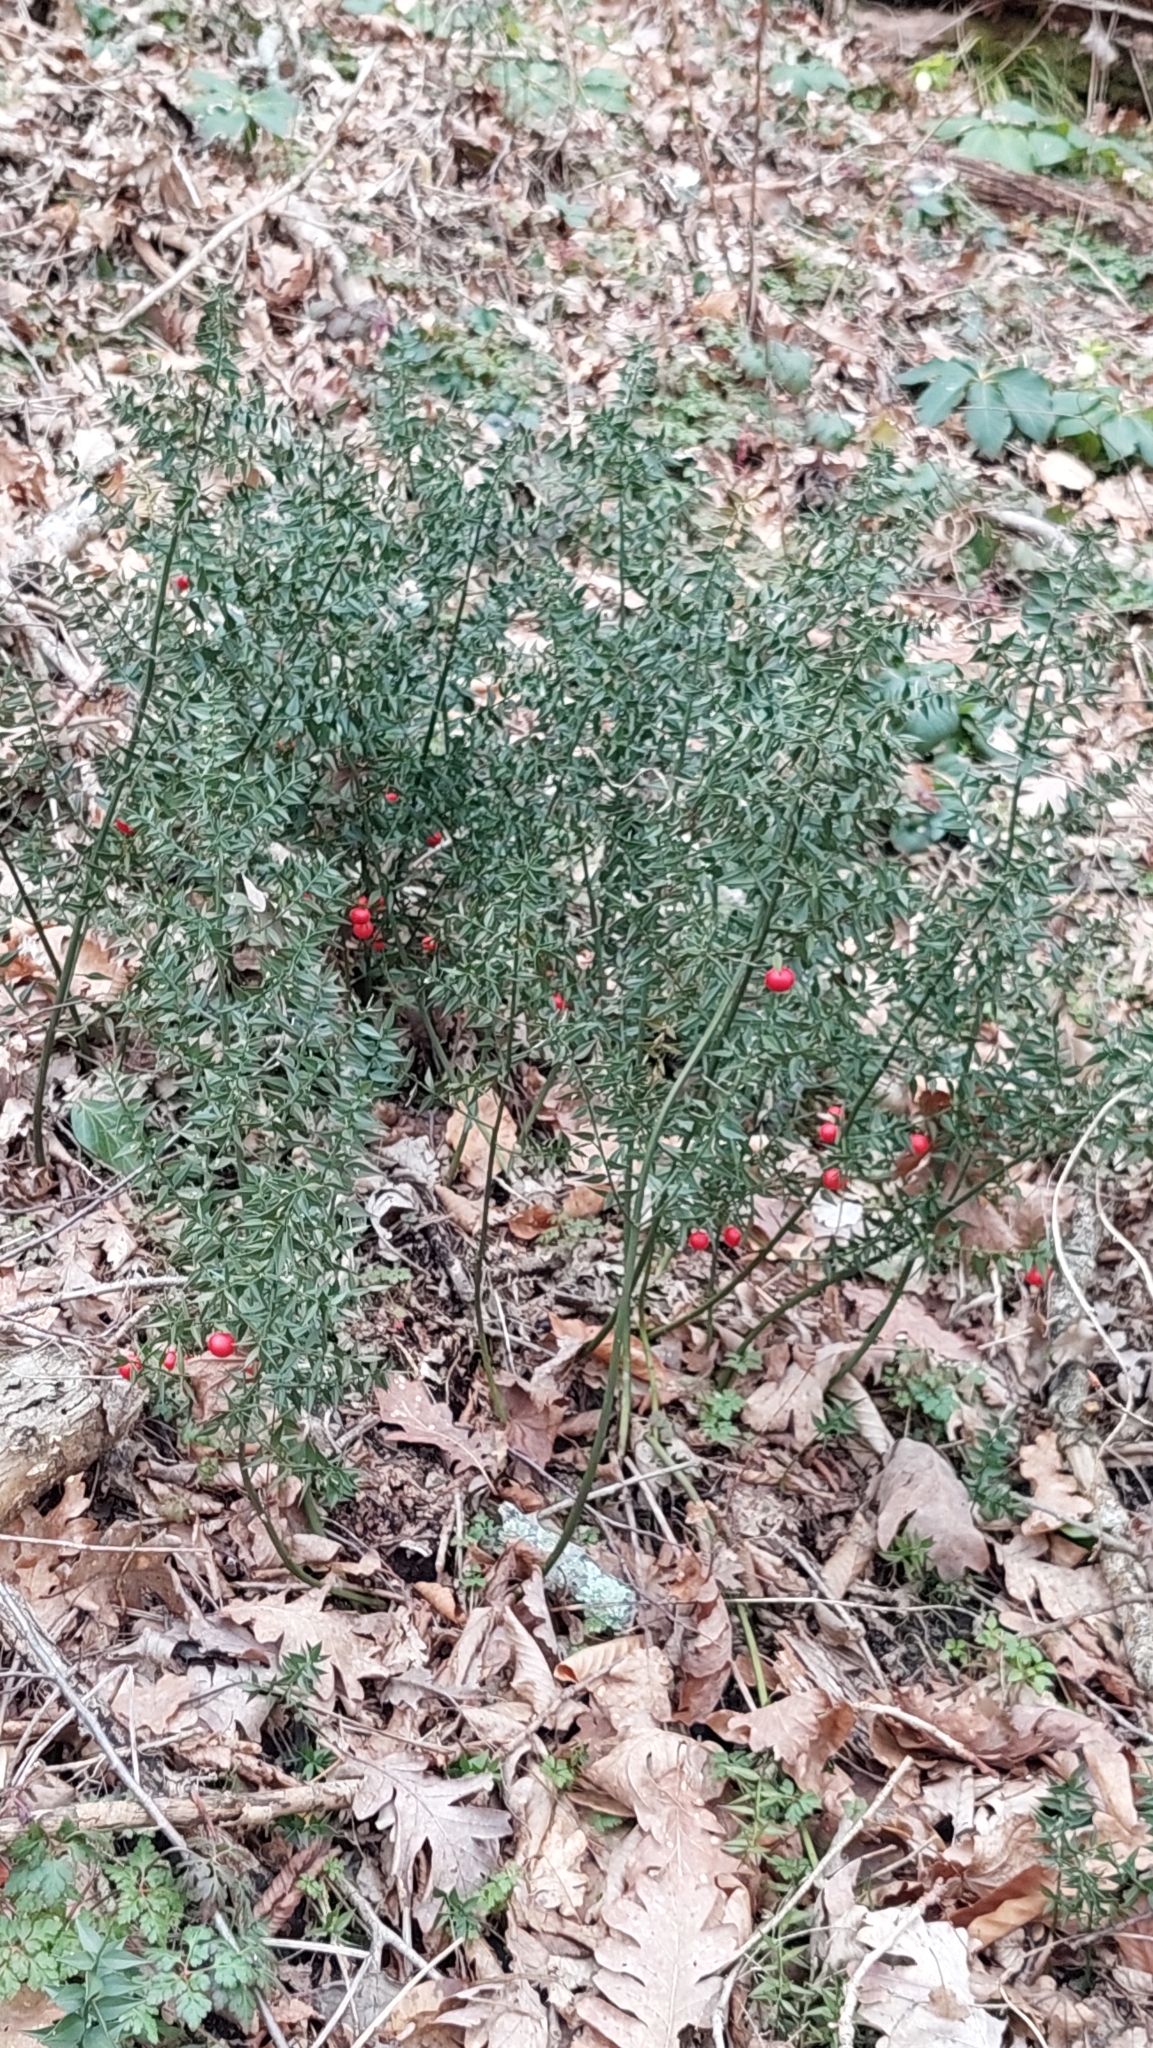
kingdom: Plantae
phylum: Tracheophyta
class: Liliopsida
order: Asparagales
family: Asparagaceae
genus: Ruscus
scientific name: Ruscus aculeatus
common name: Butcher's-broom
